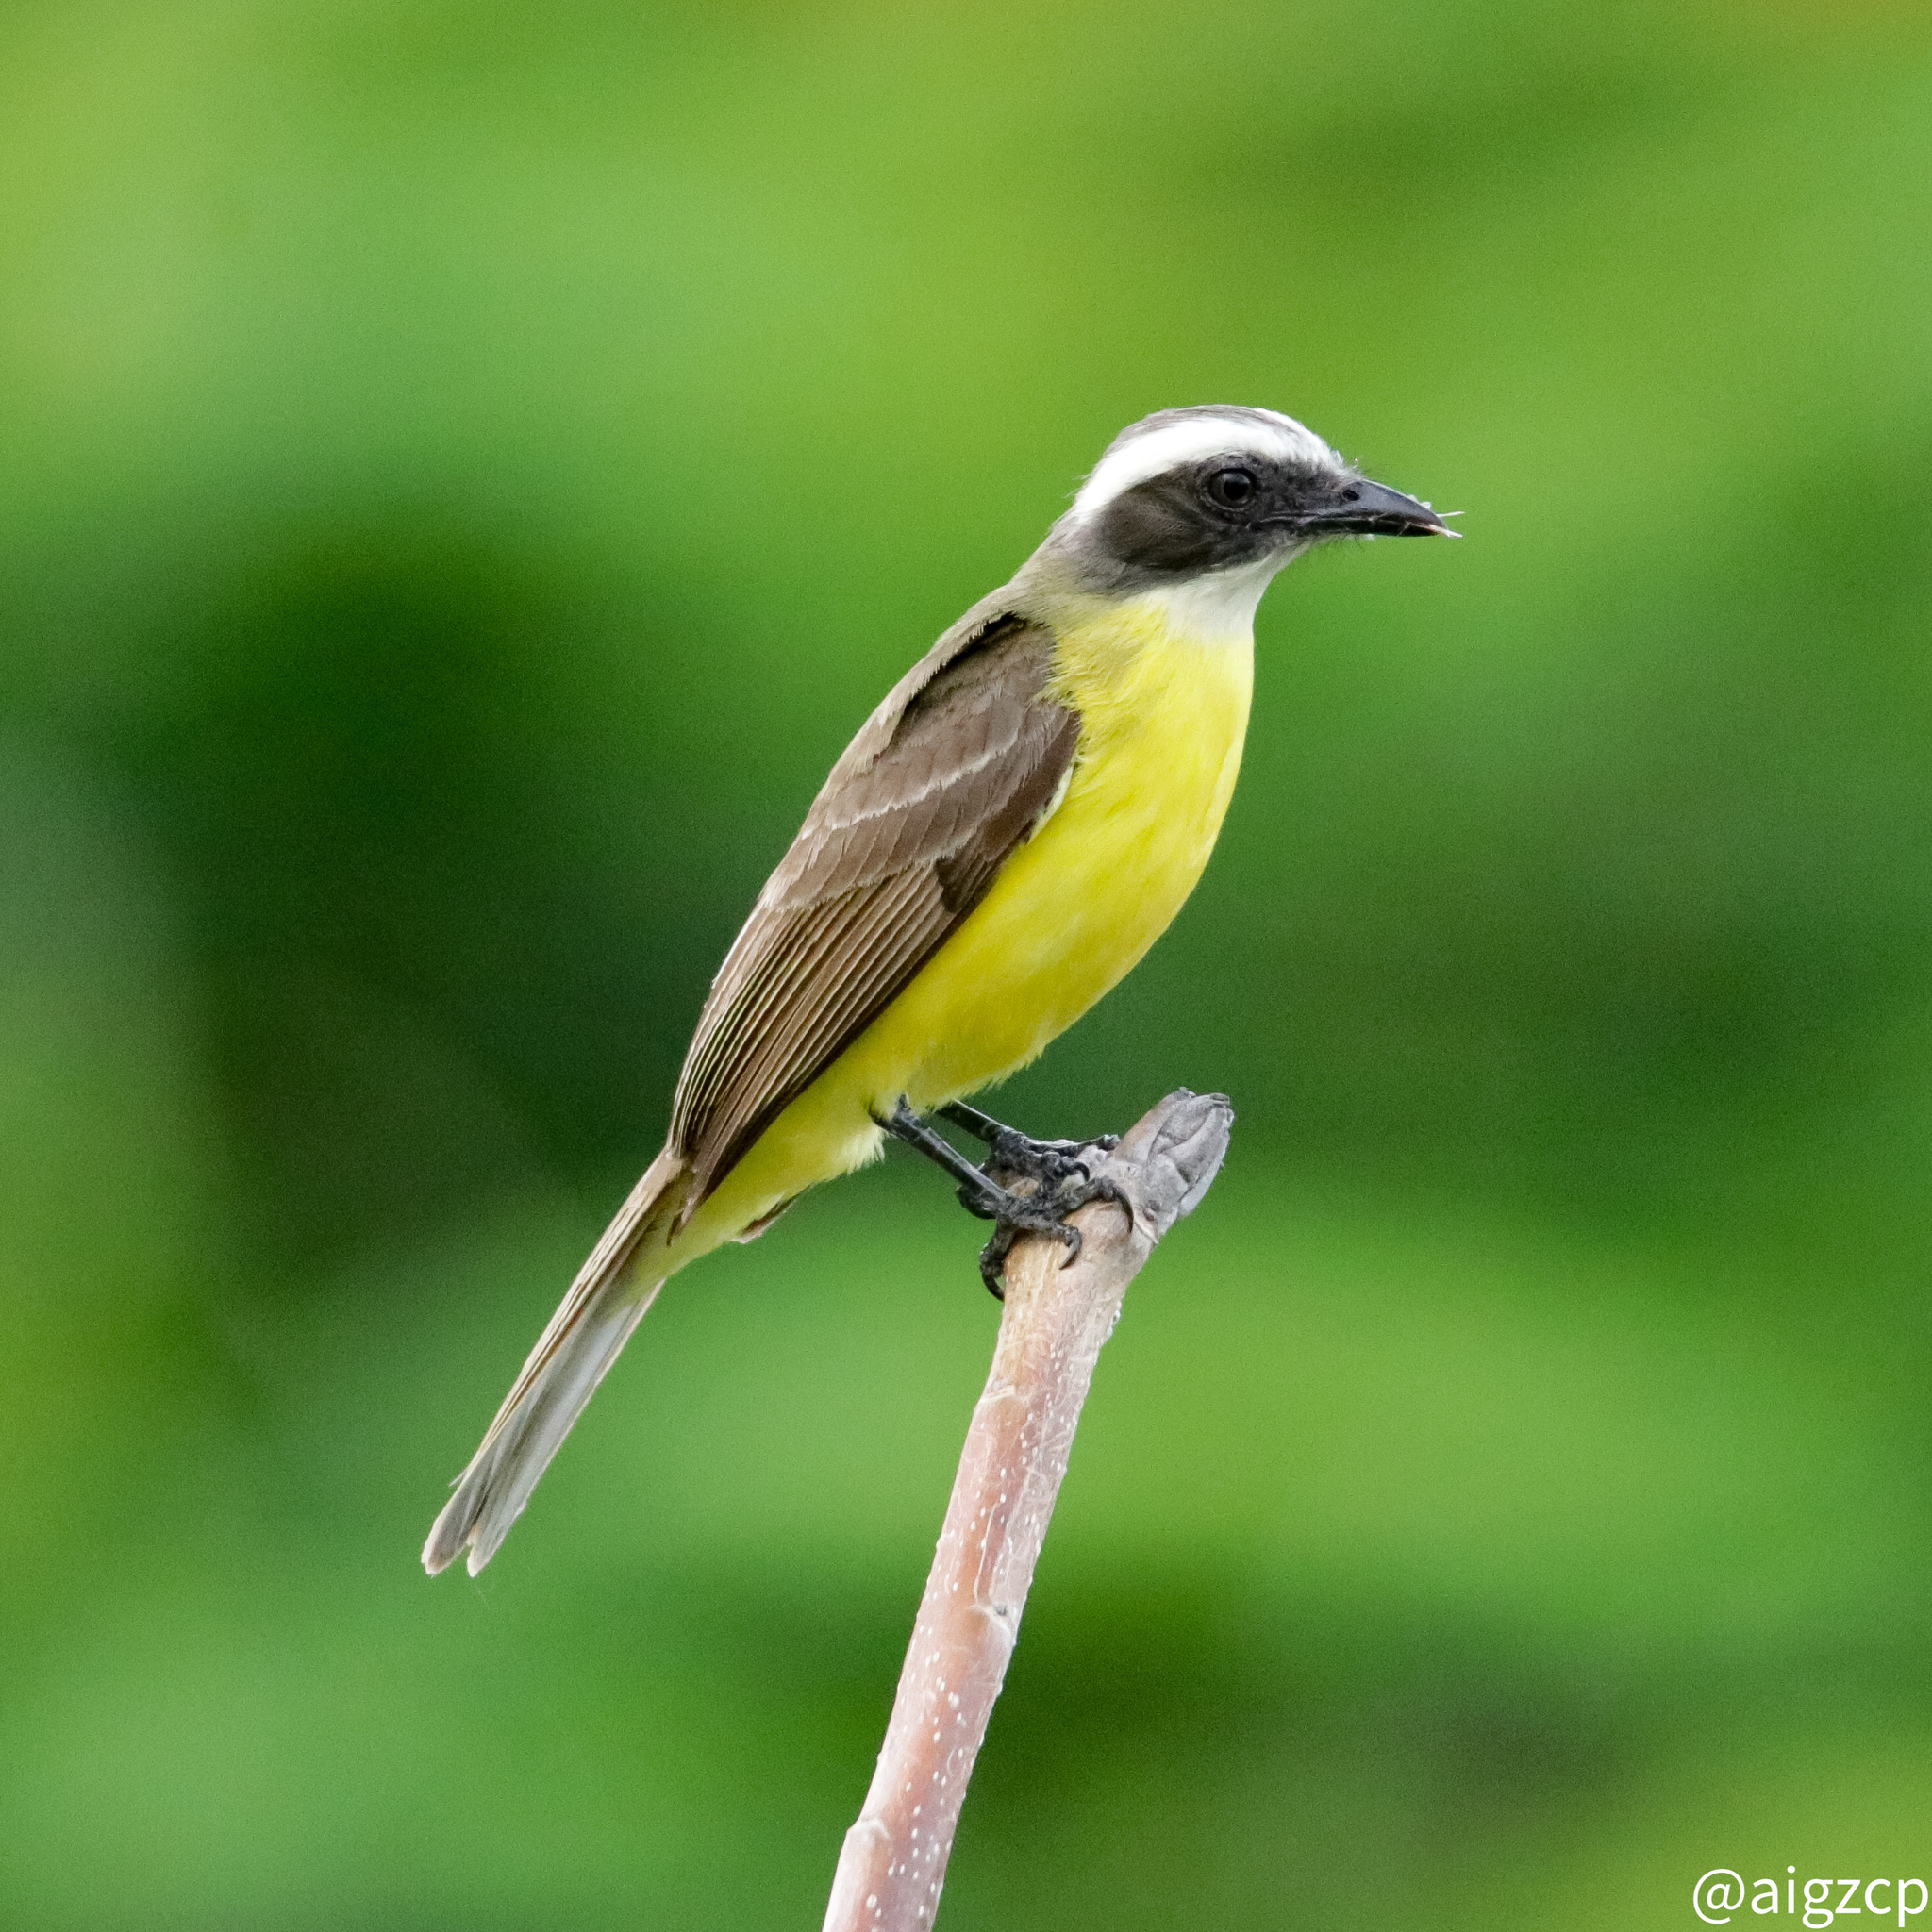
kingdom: Animalia
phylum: Chordata
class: Aves
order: Passeriformes
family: Tyrannidae
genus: Myiozetetes
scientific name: Myiozetetes similis
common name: Social flycatcher
